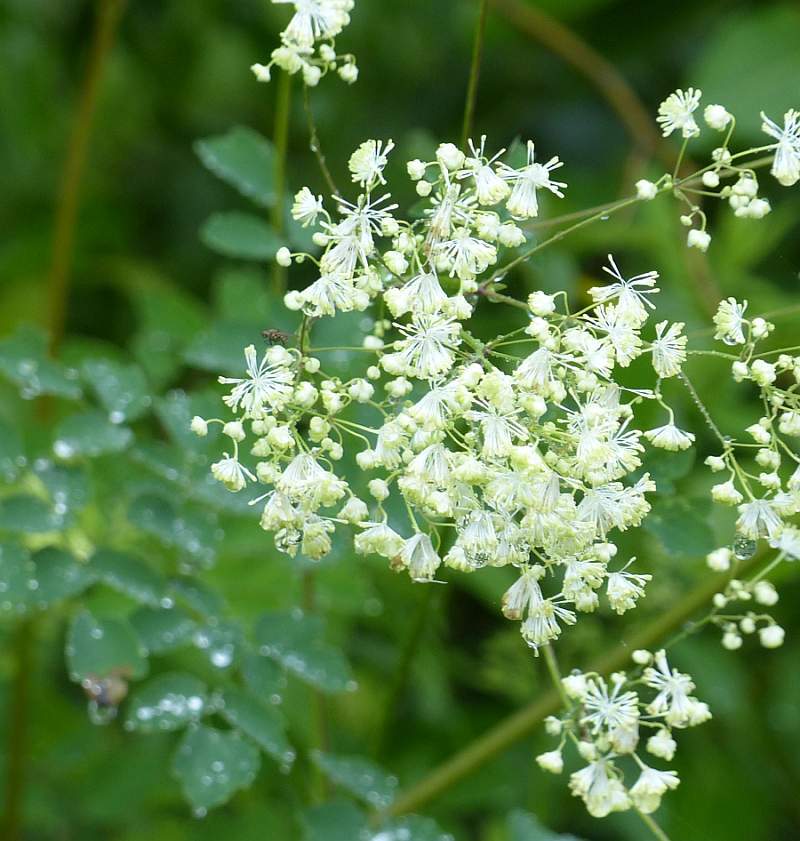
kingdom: Plantae
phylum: Tracheophyta
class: Magnoliopsida
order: Ranunculales
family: Ranunculaceae
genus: Thalictrum
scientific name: Thalictrum pubescens
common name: King-of-the-meadow
